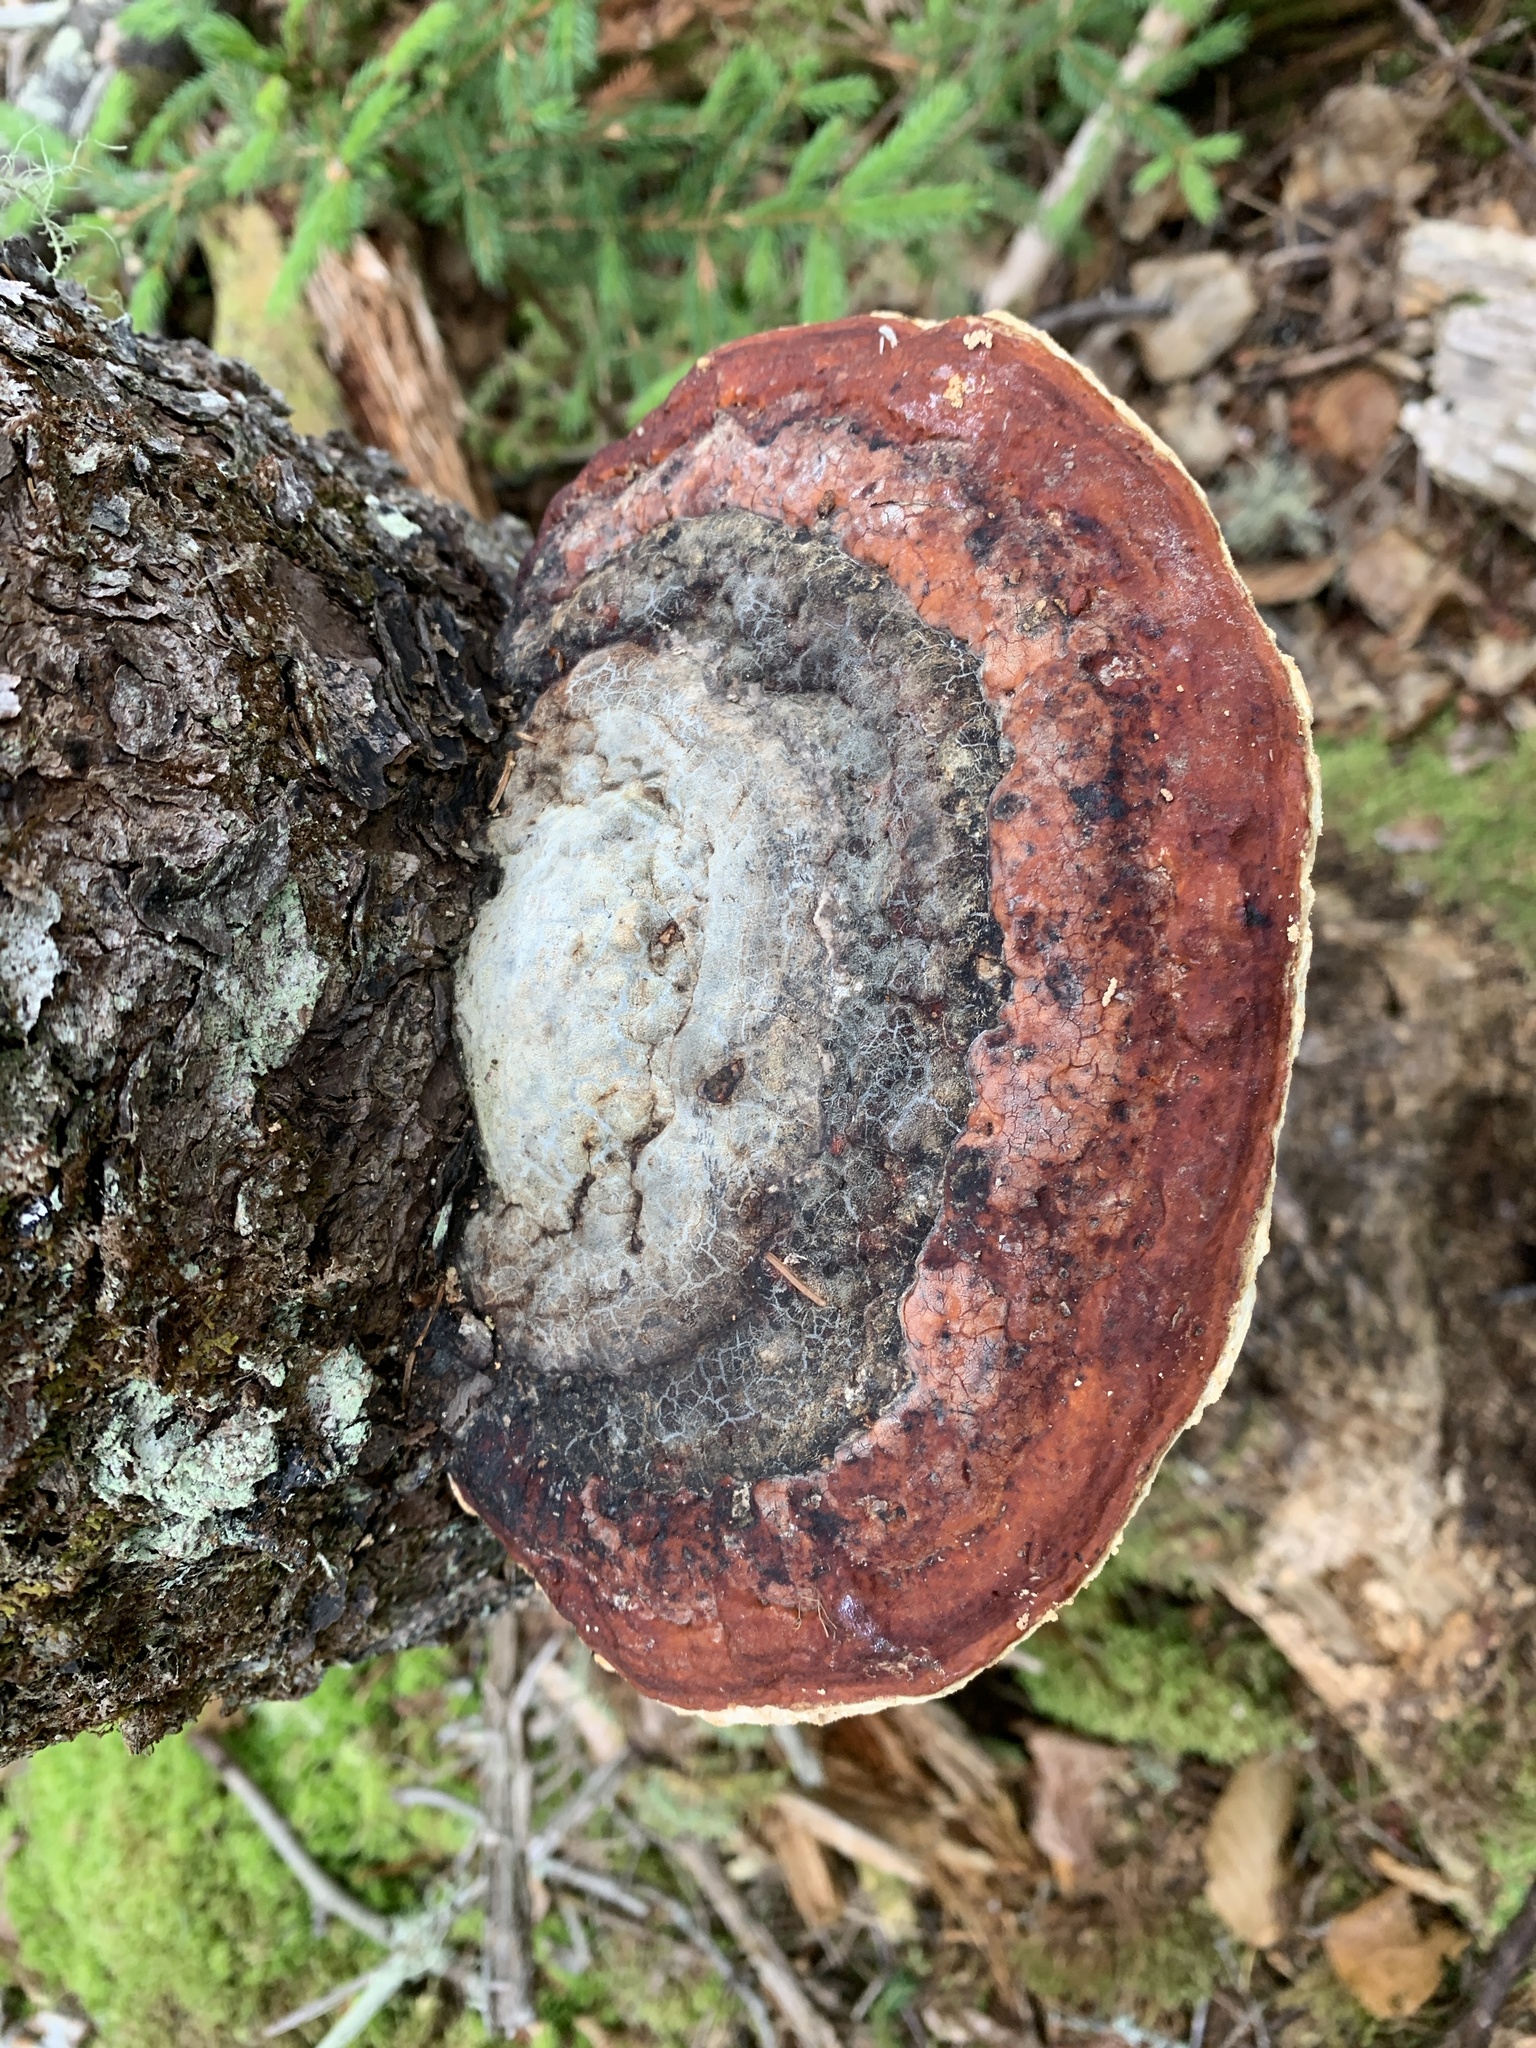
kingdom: Fungi
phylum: Basidiomycota
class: Agaricomycetes
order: Polyporales
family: Fomitopsidaceae
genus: Fomitopsis
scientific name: Fomitopsis mounceae
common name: Northern red belt
